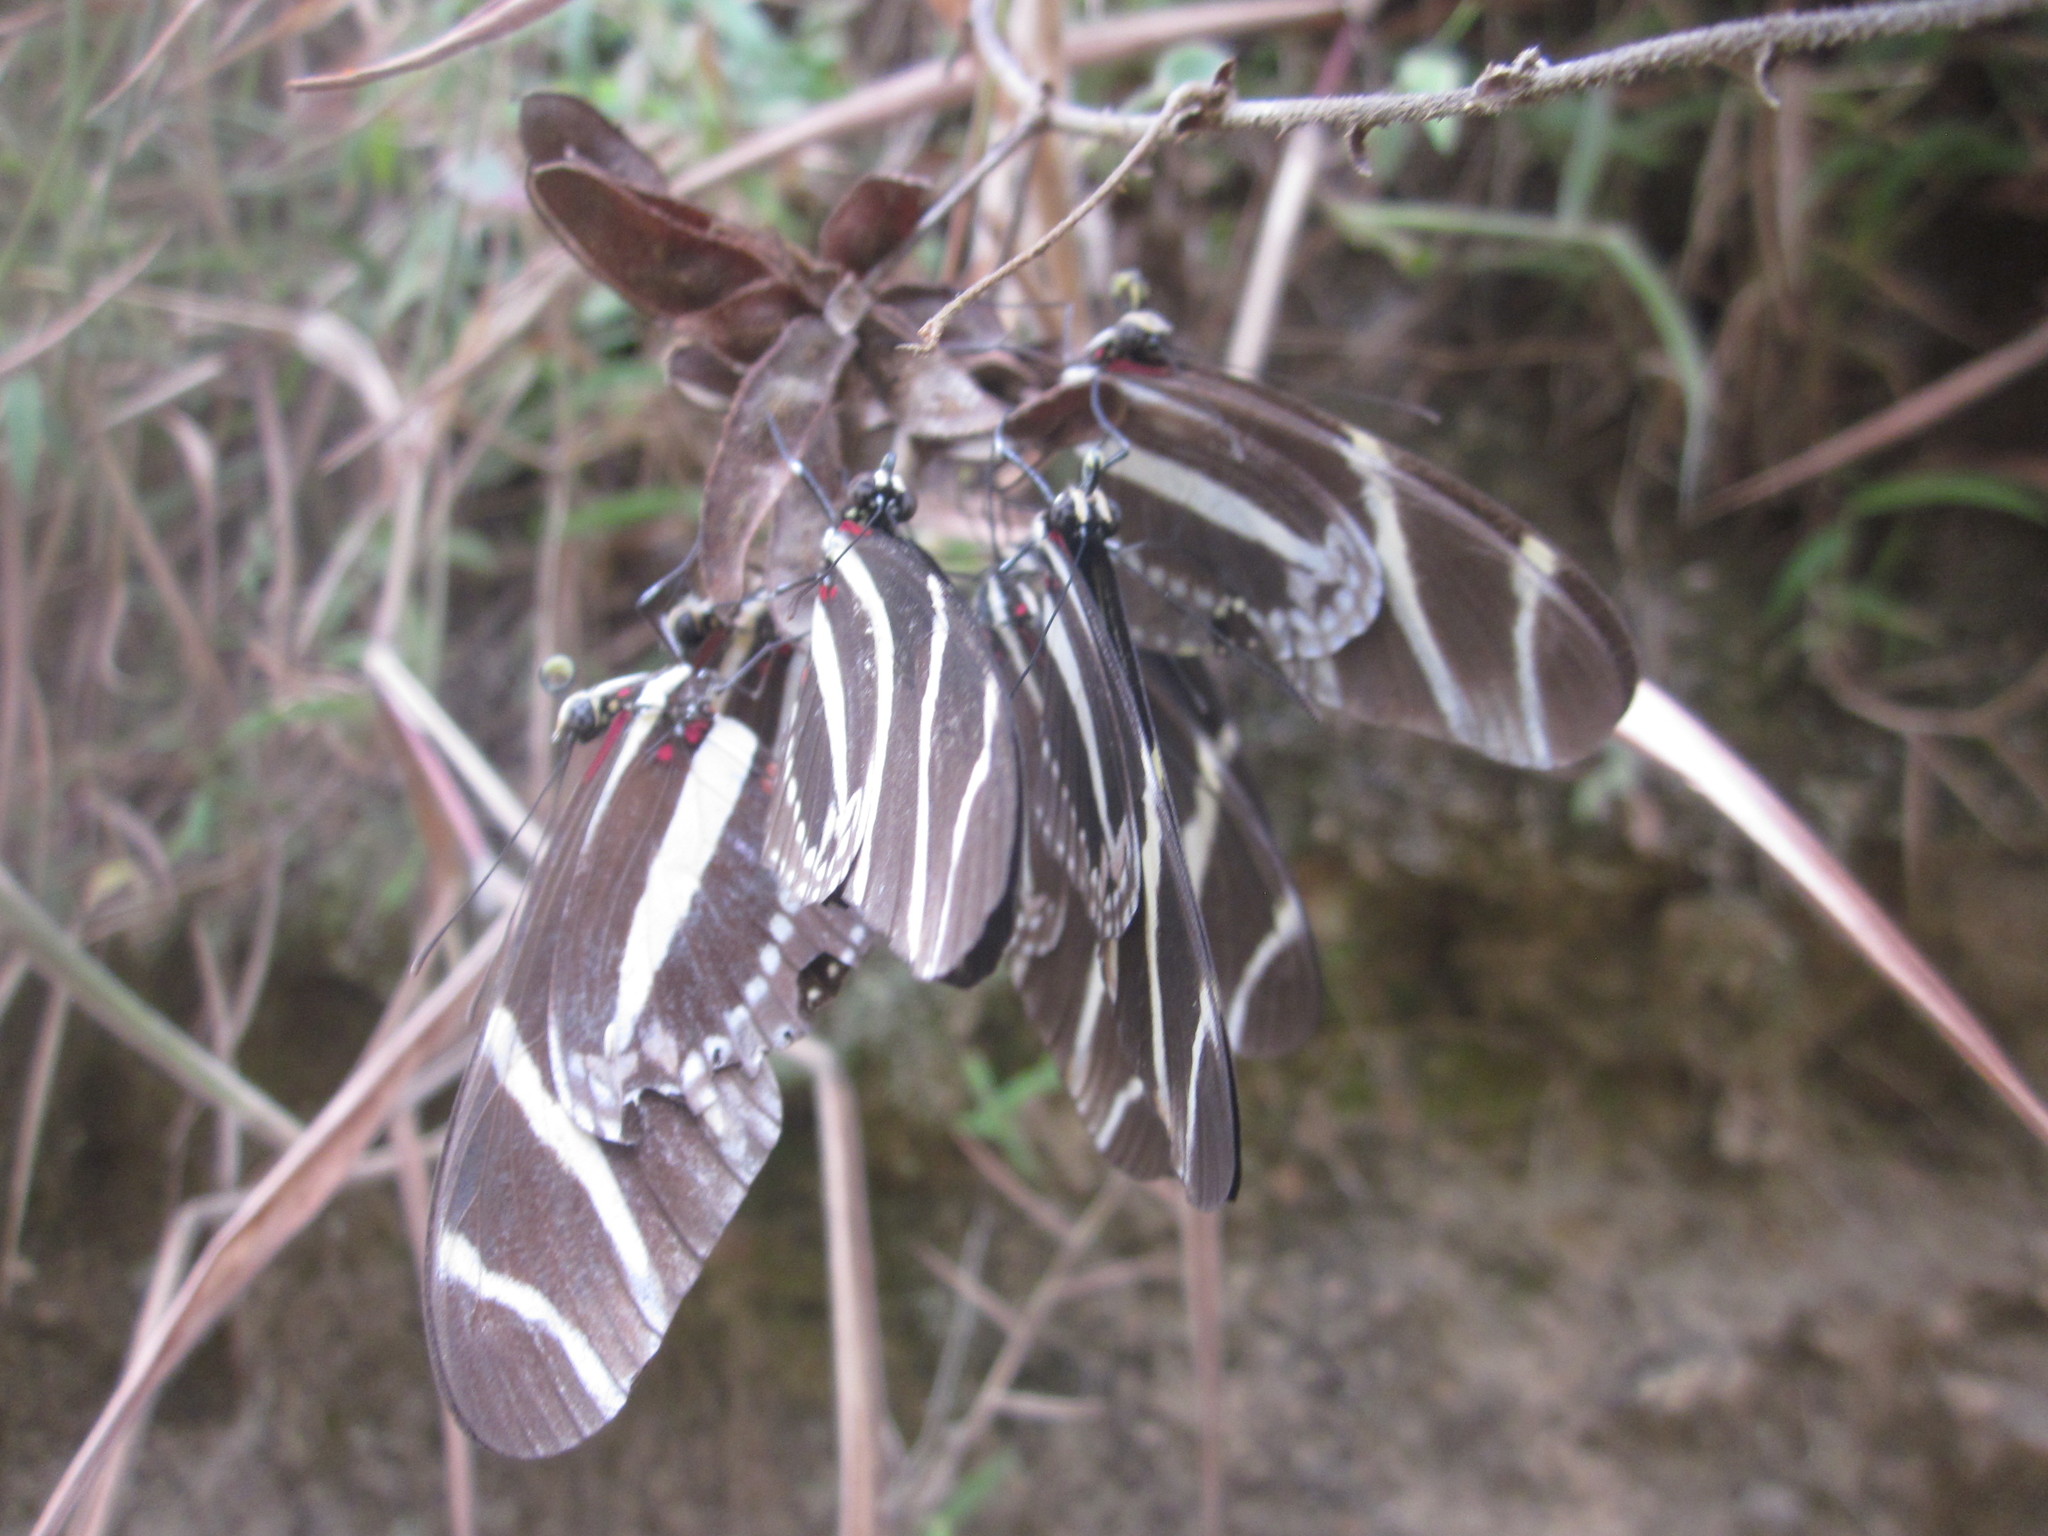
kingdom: Animalia
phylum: Arthropoda
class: Insecta
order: Lepidoptera
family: Nymphalidae
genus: Heliconius
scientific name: Heliconius charithonia
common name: Zebra long wing
